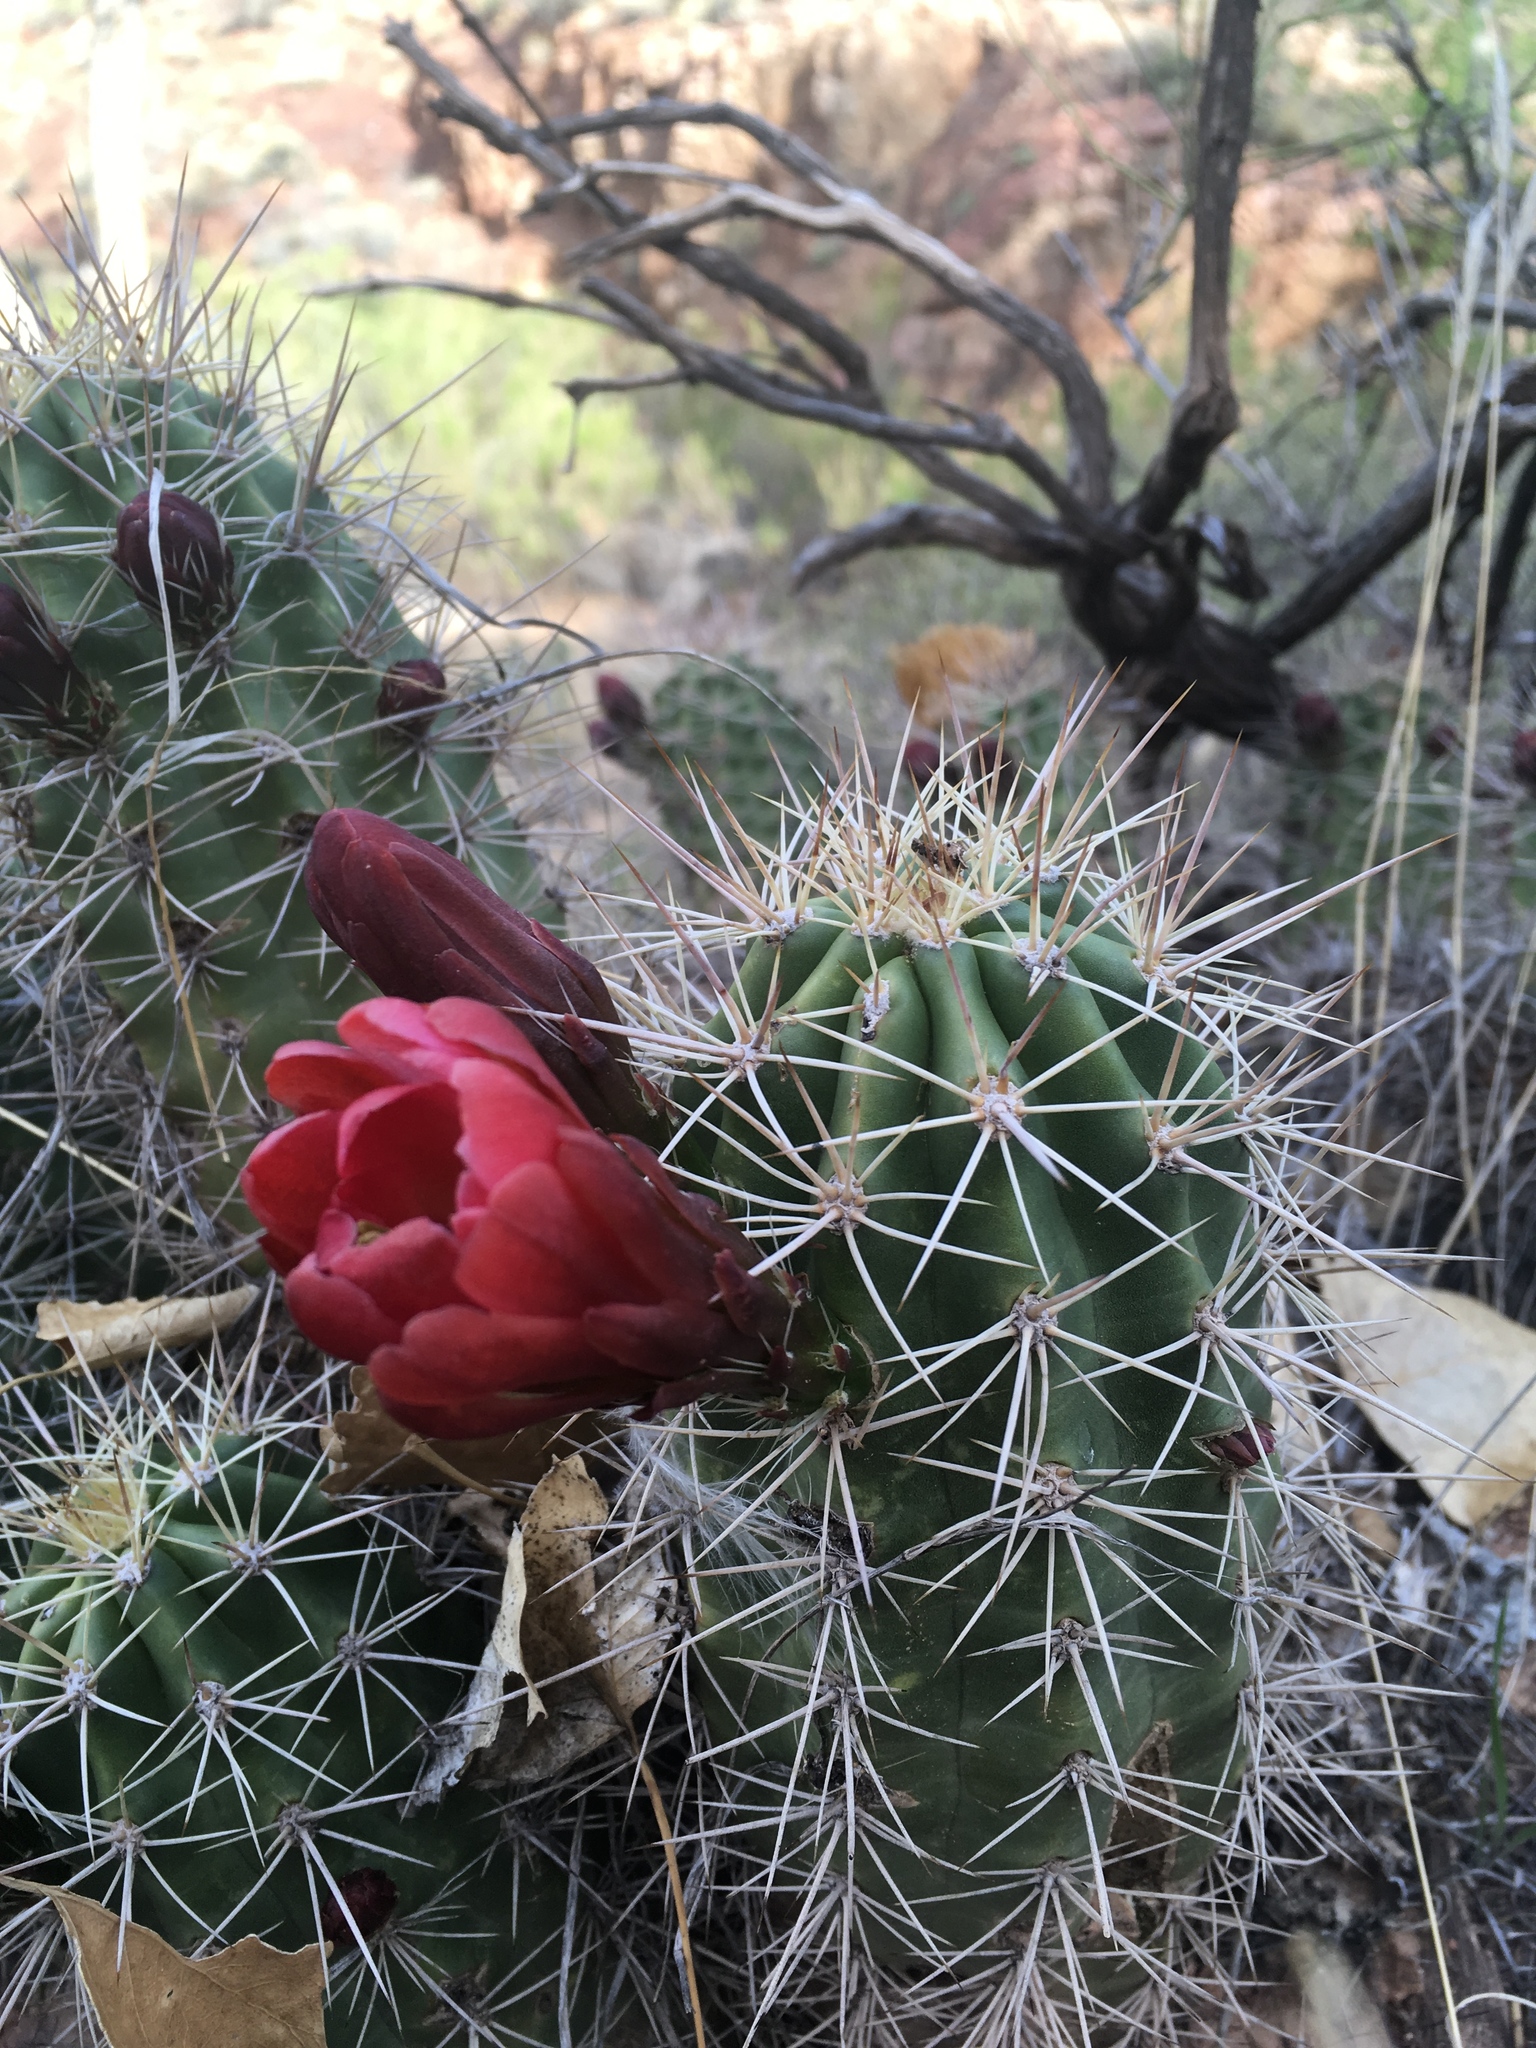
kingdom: Plantae
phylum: Tracheophyta
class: Magnoliopsida
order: Caryophyllales
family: Cactaceae
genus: Echinocereus
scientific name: Echinocereus bakeri
